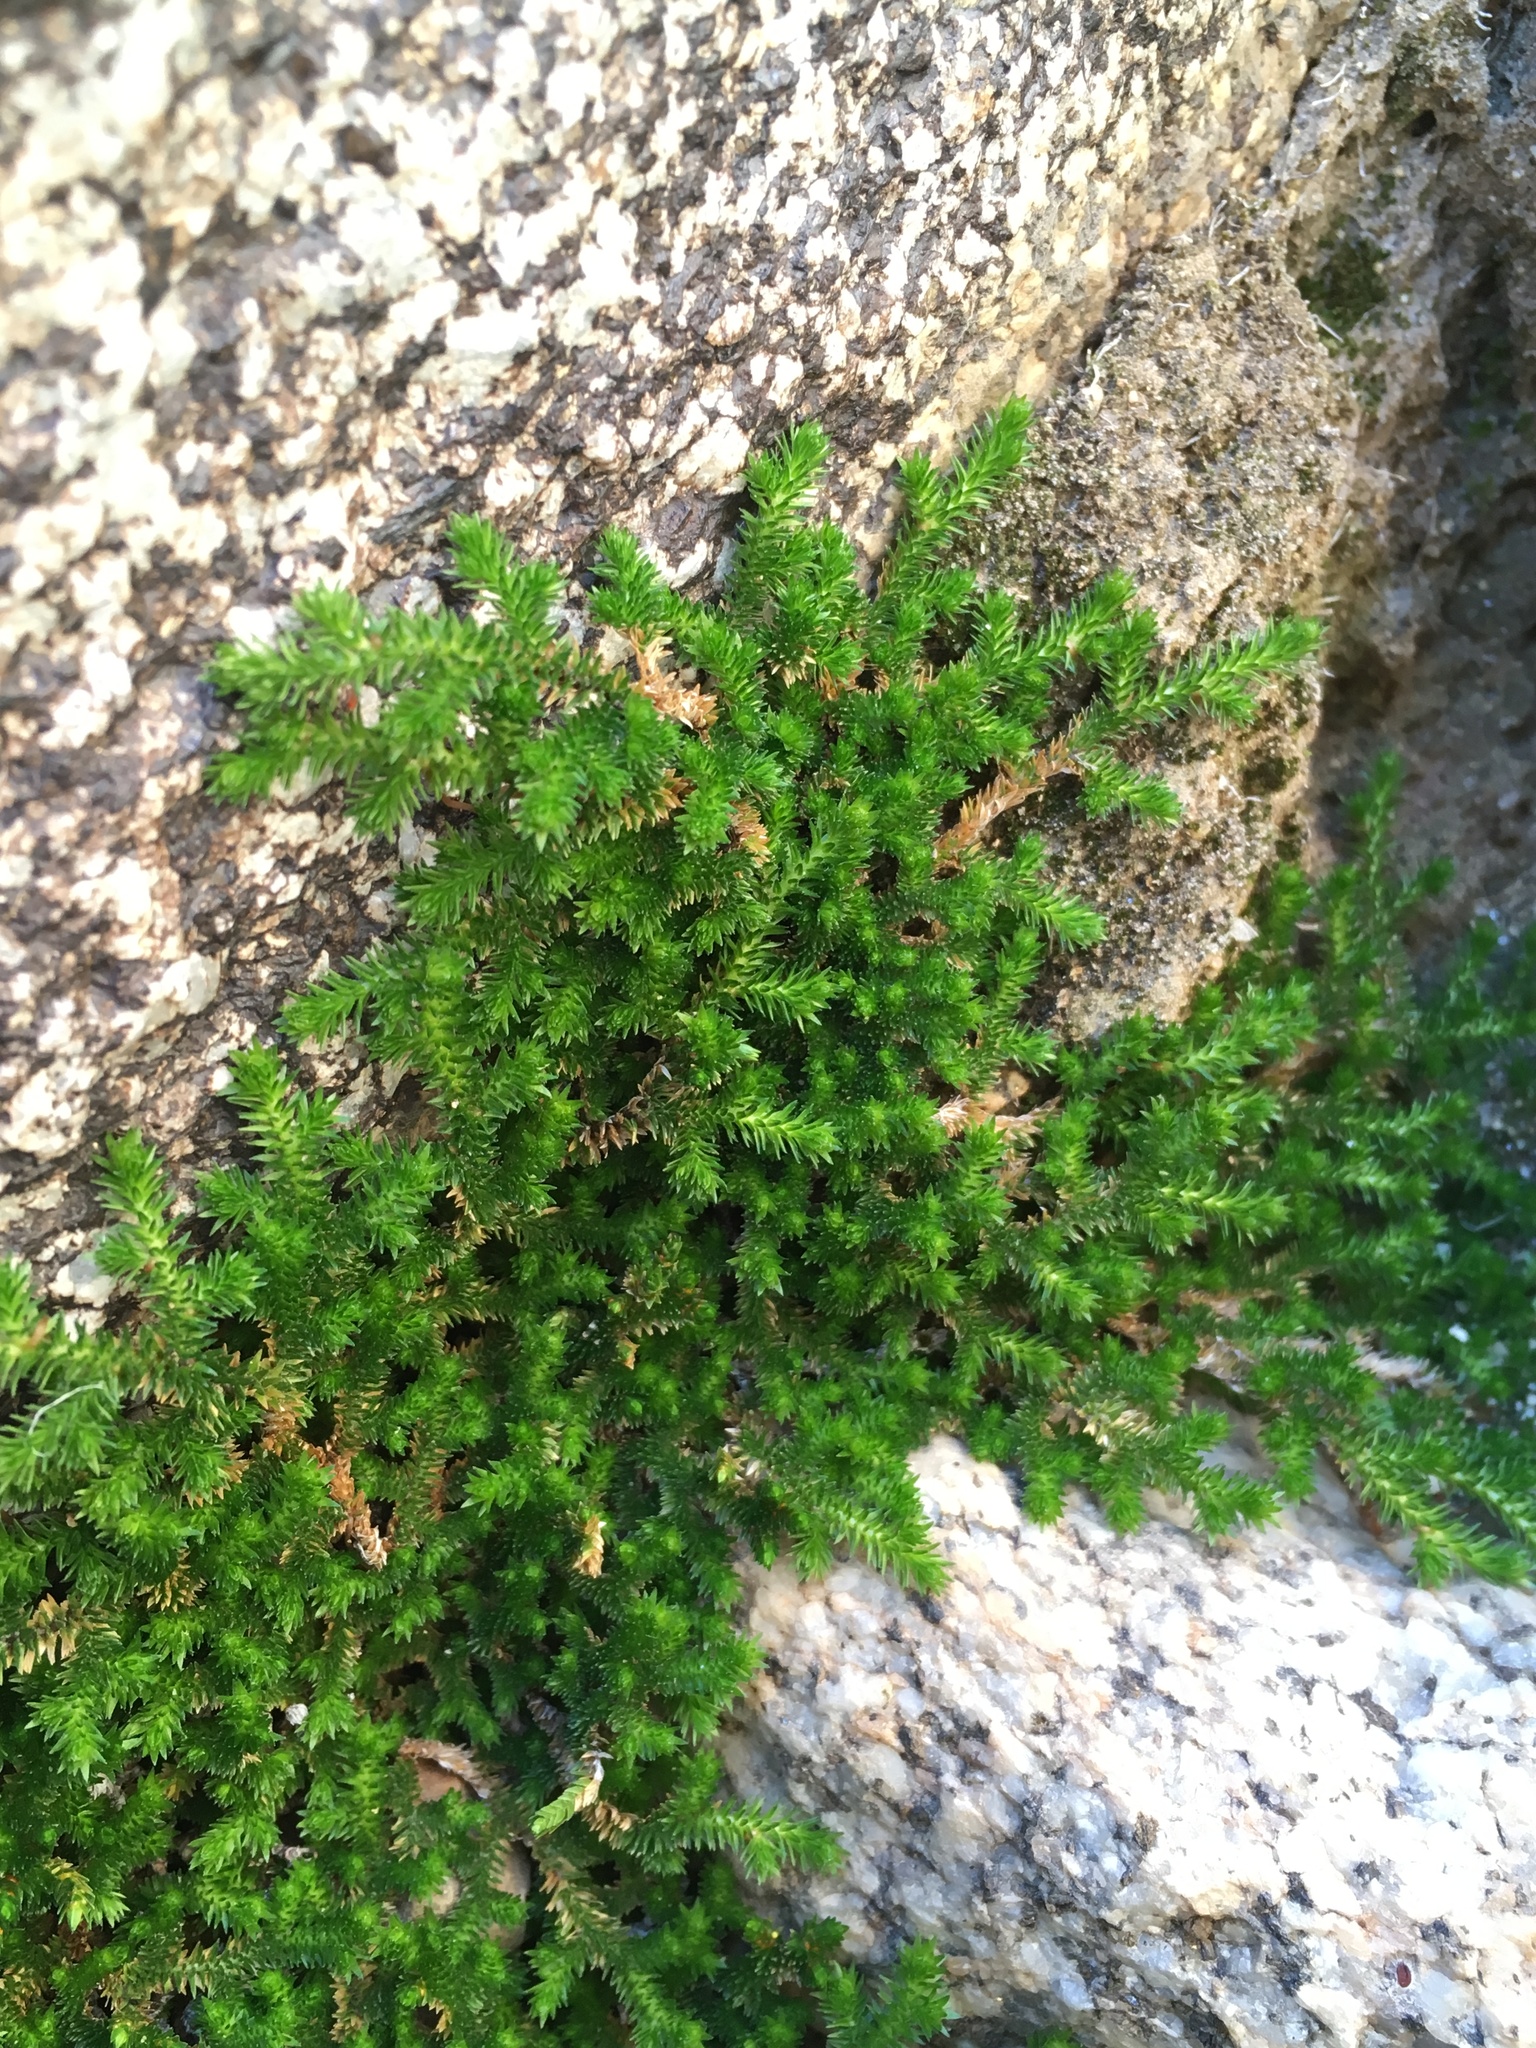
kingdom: Plantae
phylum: Tracheophyta
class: Lycopodiopsida
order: Selaginellales
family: Selaginellaceae
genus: Selaginella
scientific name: Selaginella eremophila
